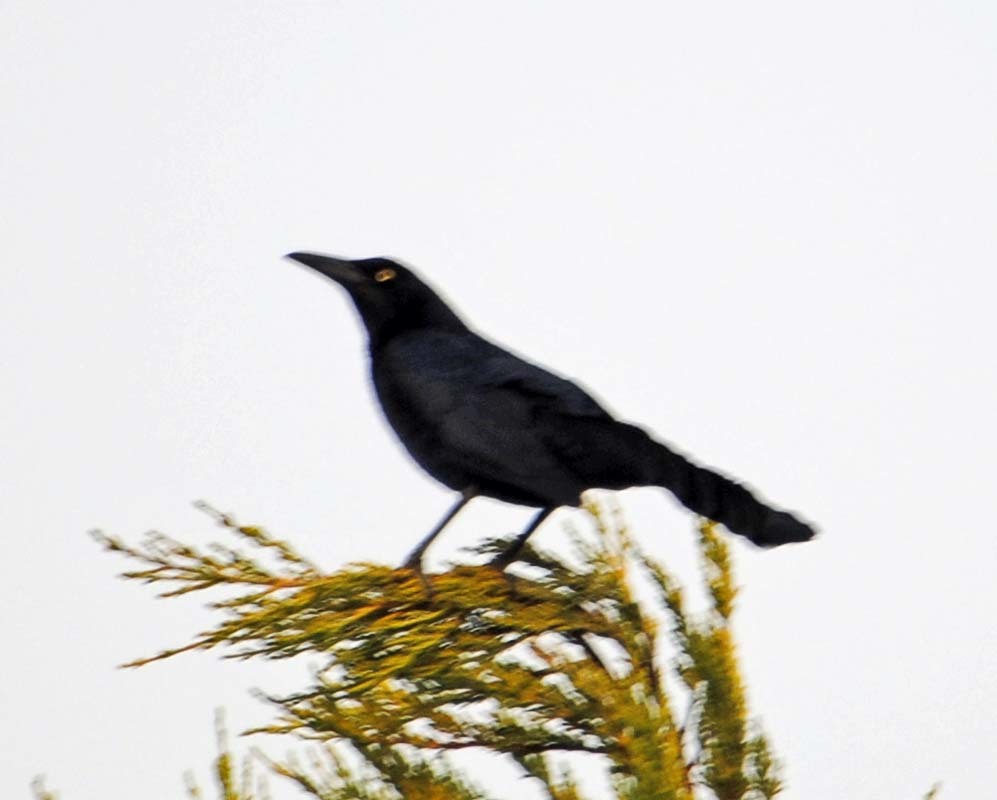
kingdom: Animalia
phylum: Chordata
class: Aves
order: Passeriformes
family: Icteridae
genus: Quiscalus
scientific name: Quiscalus mexicanus
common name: Great-tailed grackle
